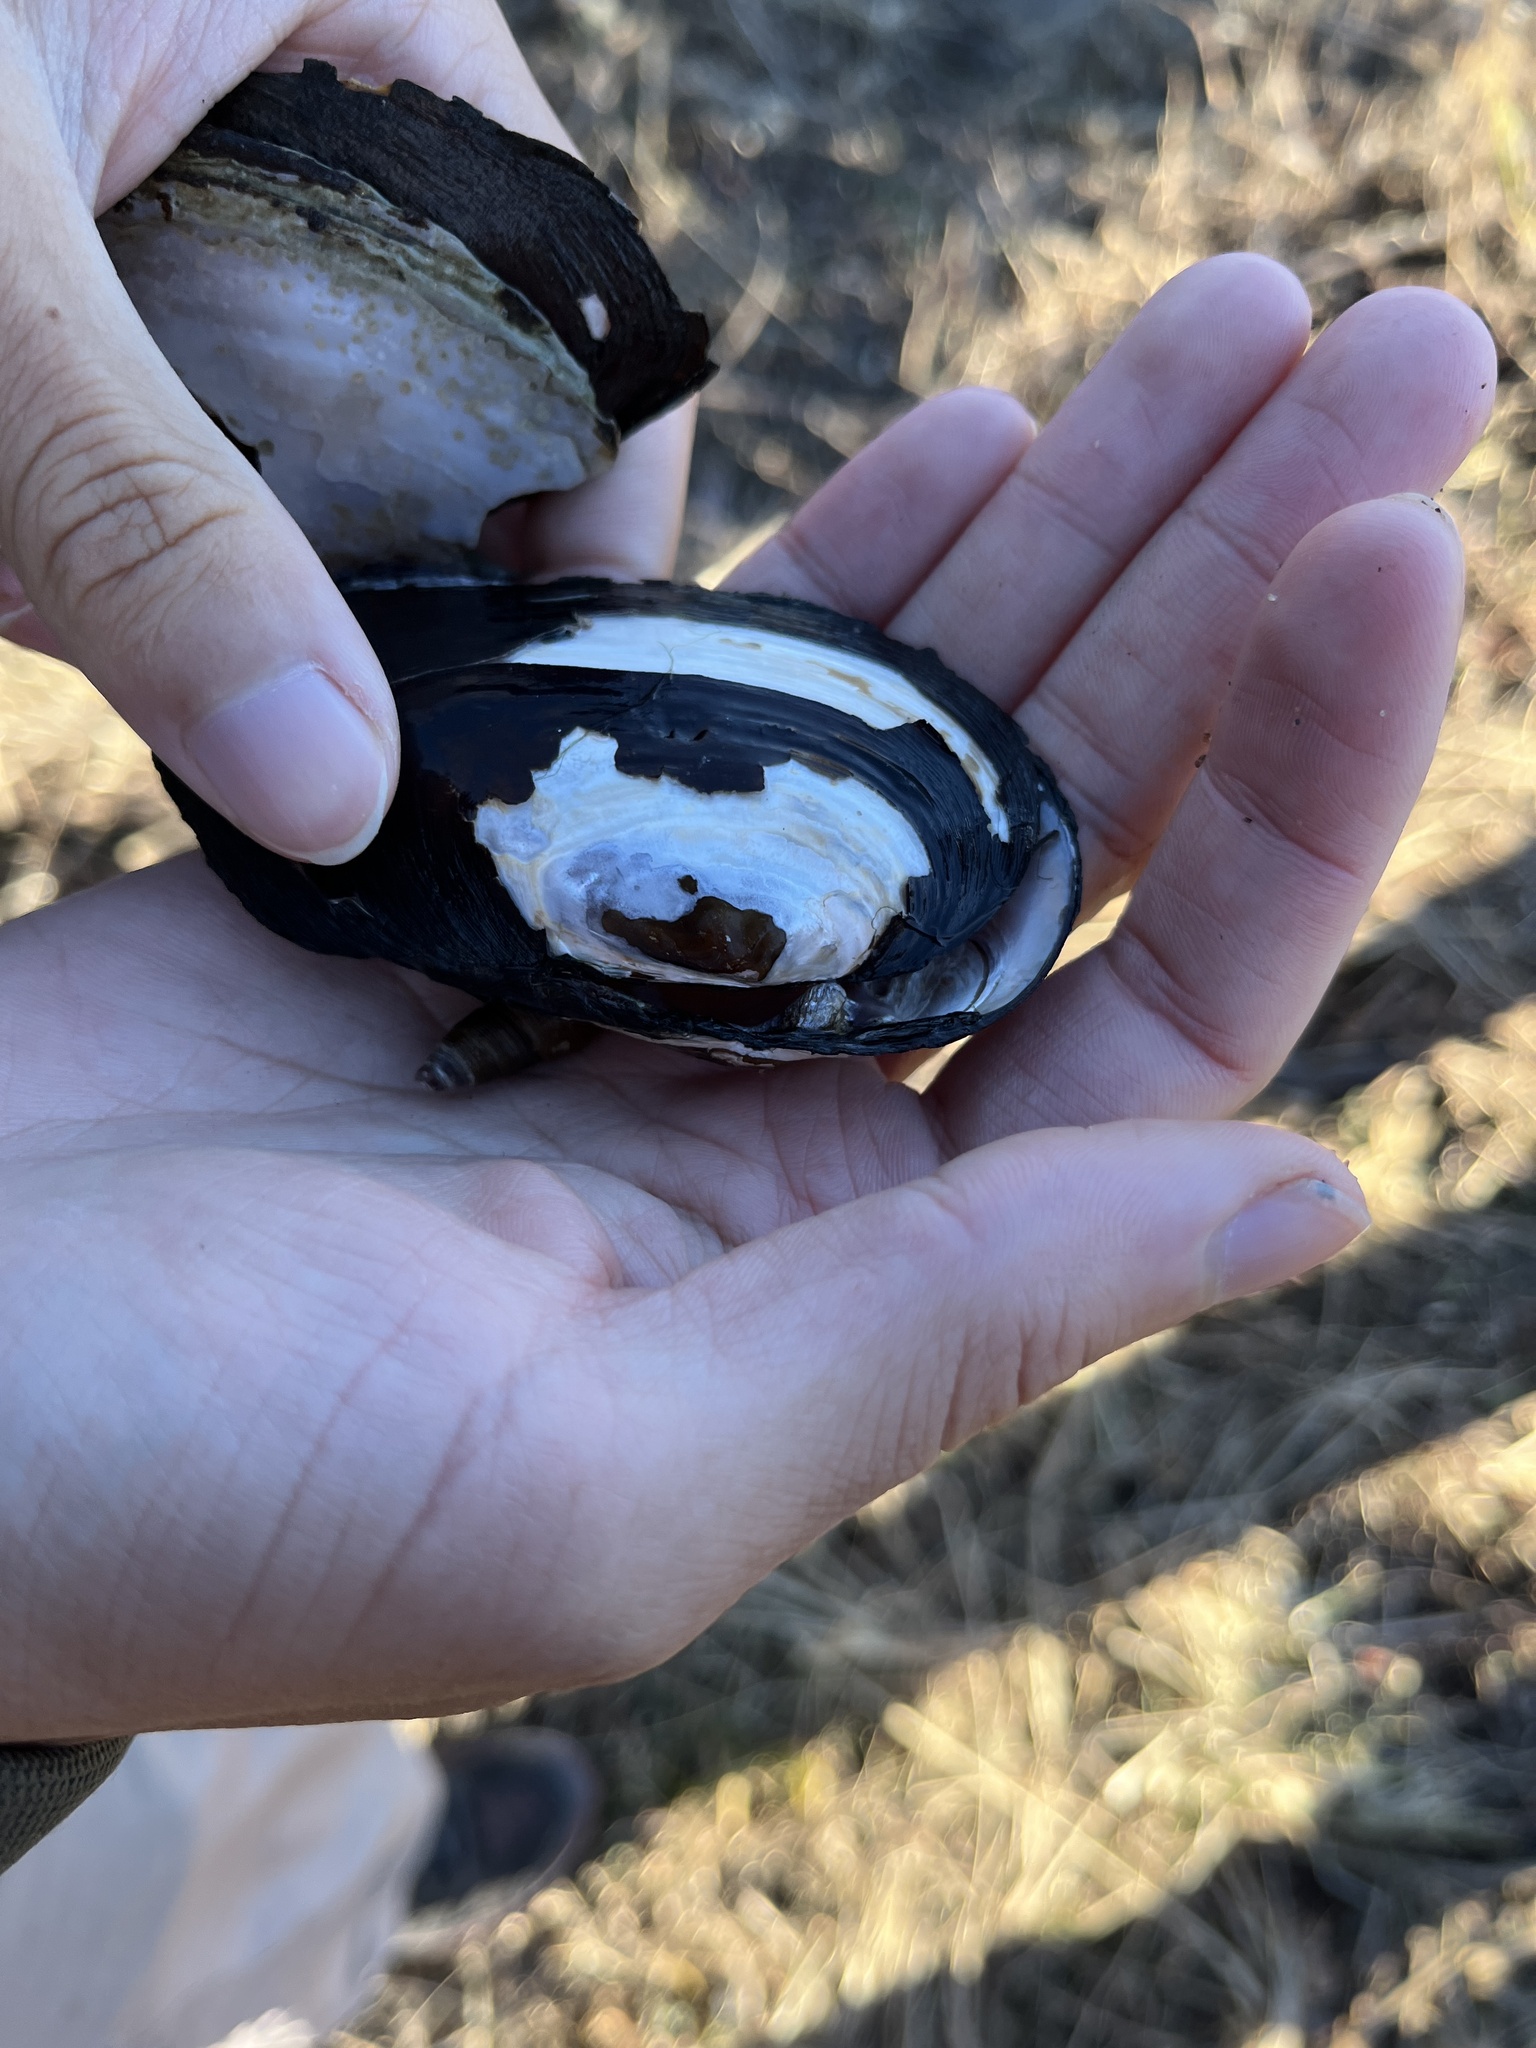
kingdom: Animalia
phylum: Mollusca
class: Bivalvia
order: Unionida
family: Unionidae
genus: Elliptio
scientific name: Elliptio complanata
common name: Eastern elliptio
